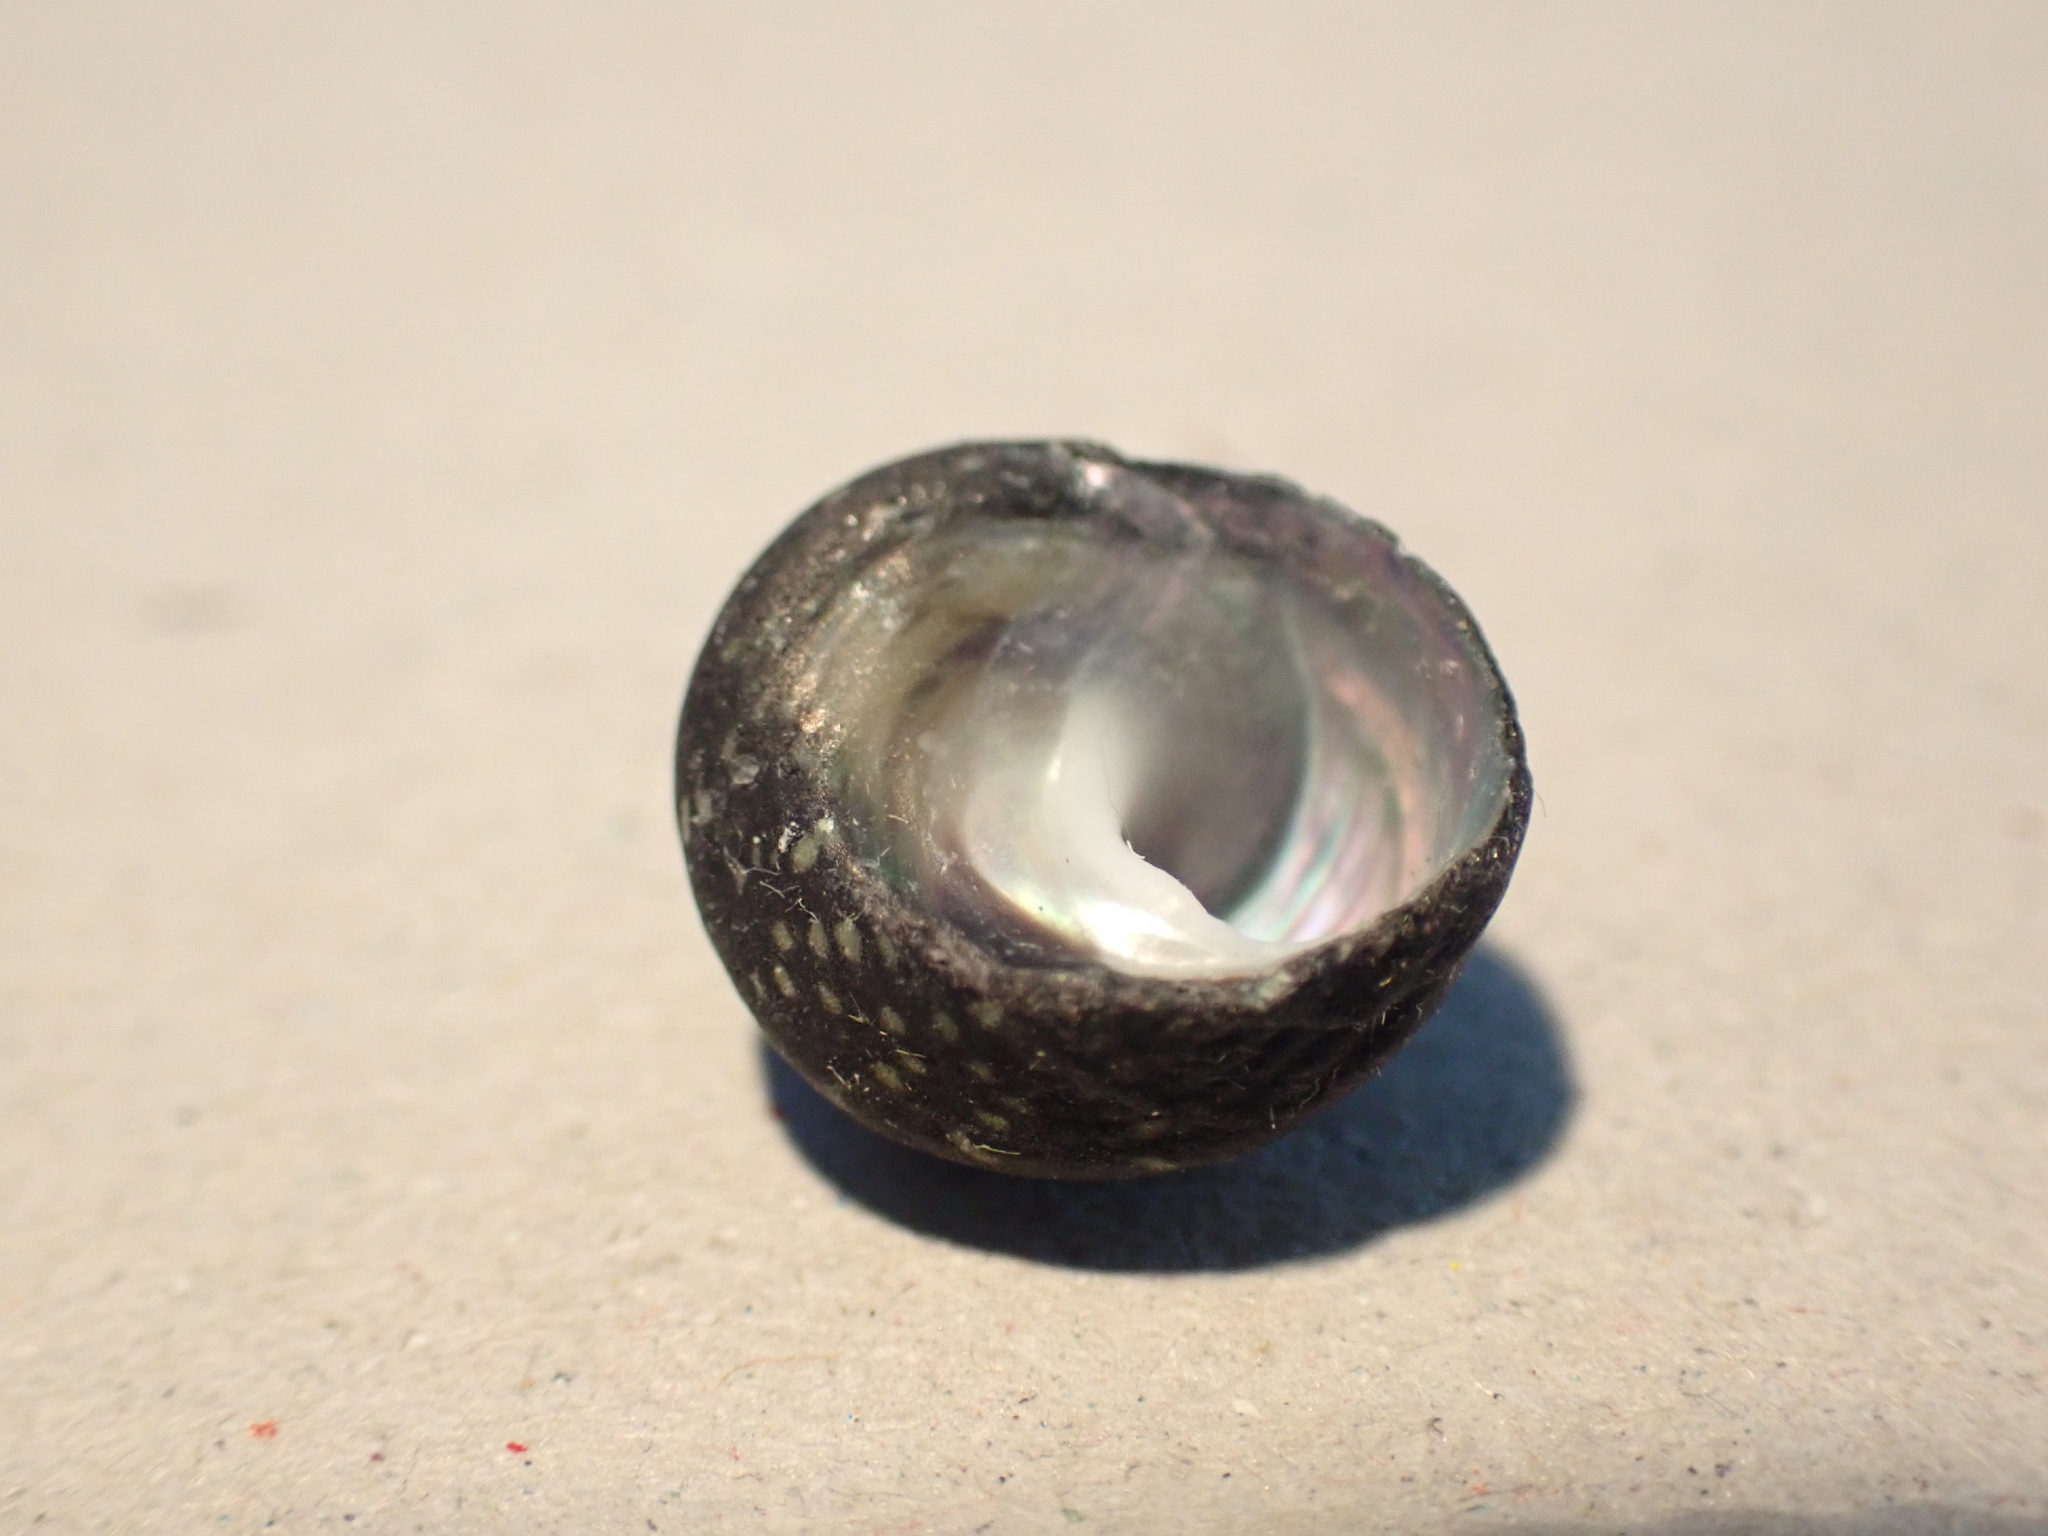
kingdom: Animalia
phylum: Mollusca
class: Gastropoda
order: Trochida
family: Trochidae
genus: Diloma
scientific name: Diloma aridum
